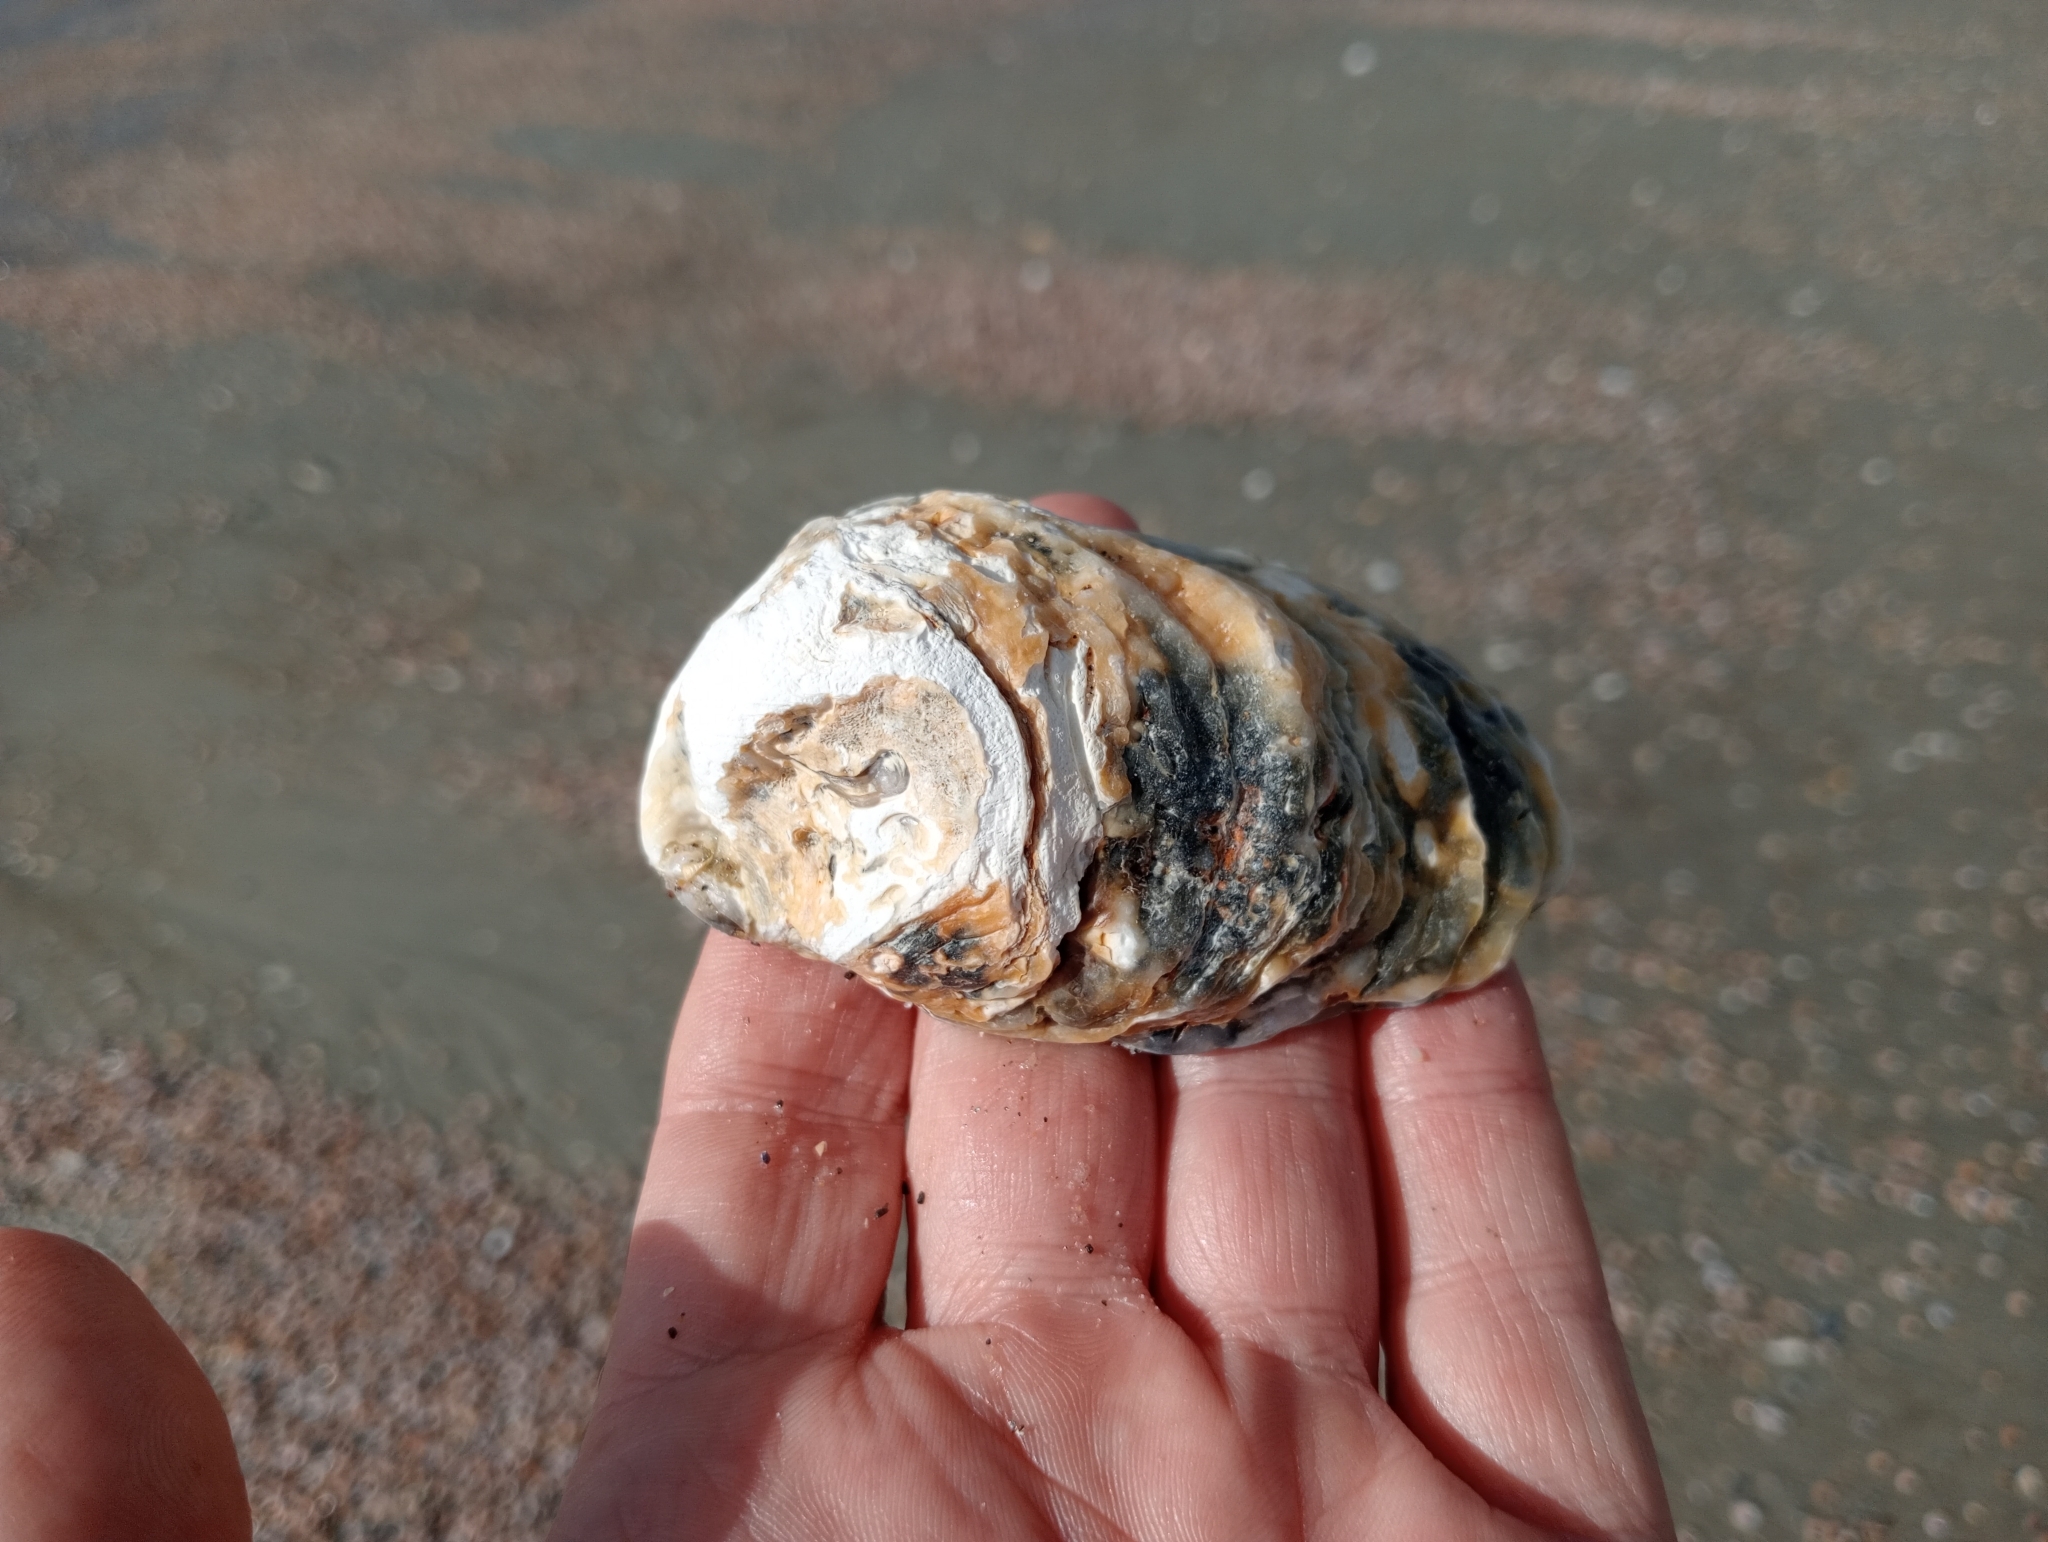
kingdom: Animalia
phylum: Mollusca
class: Bivalvia
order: Ostreida
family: Ostreidae
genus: Ostrea
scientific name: Ostrea chilensis
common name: Chilean oyster
